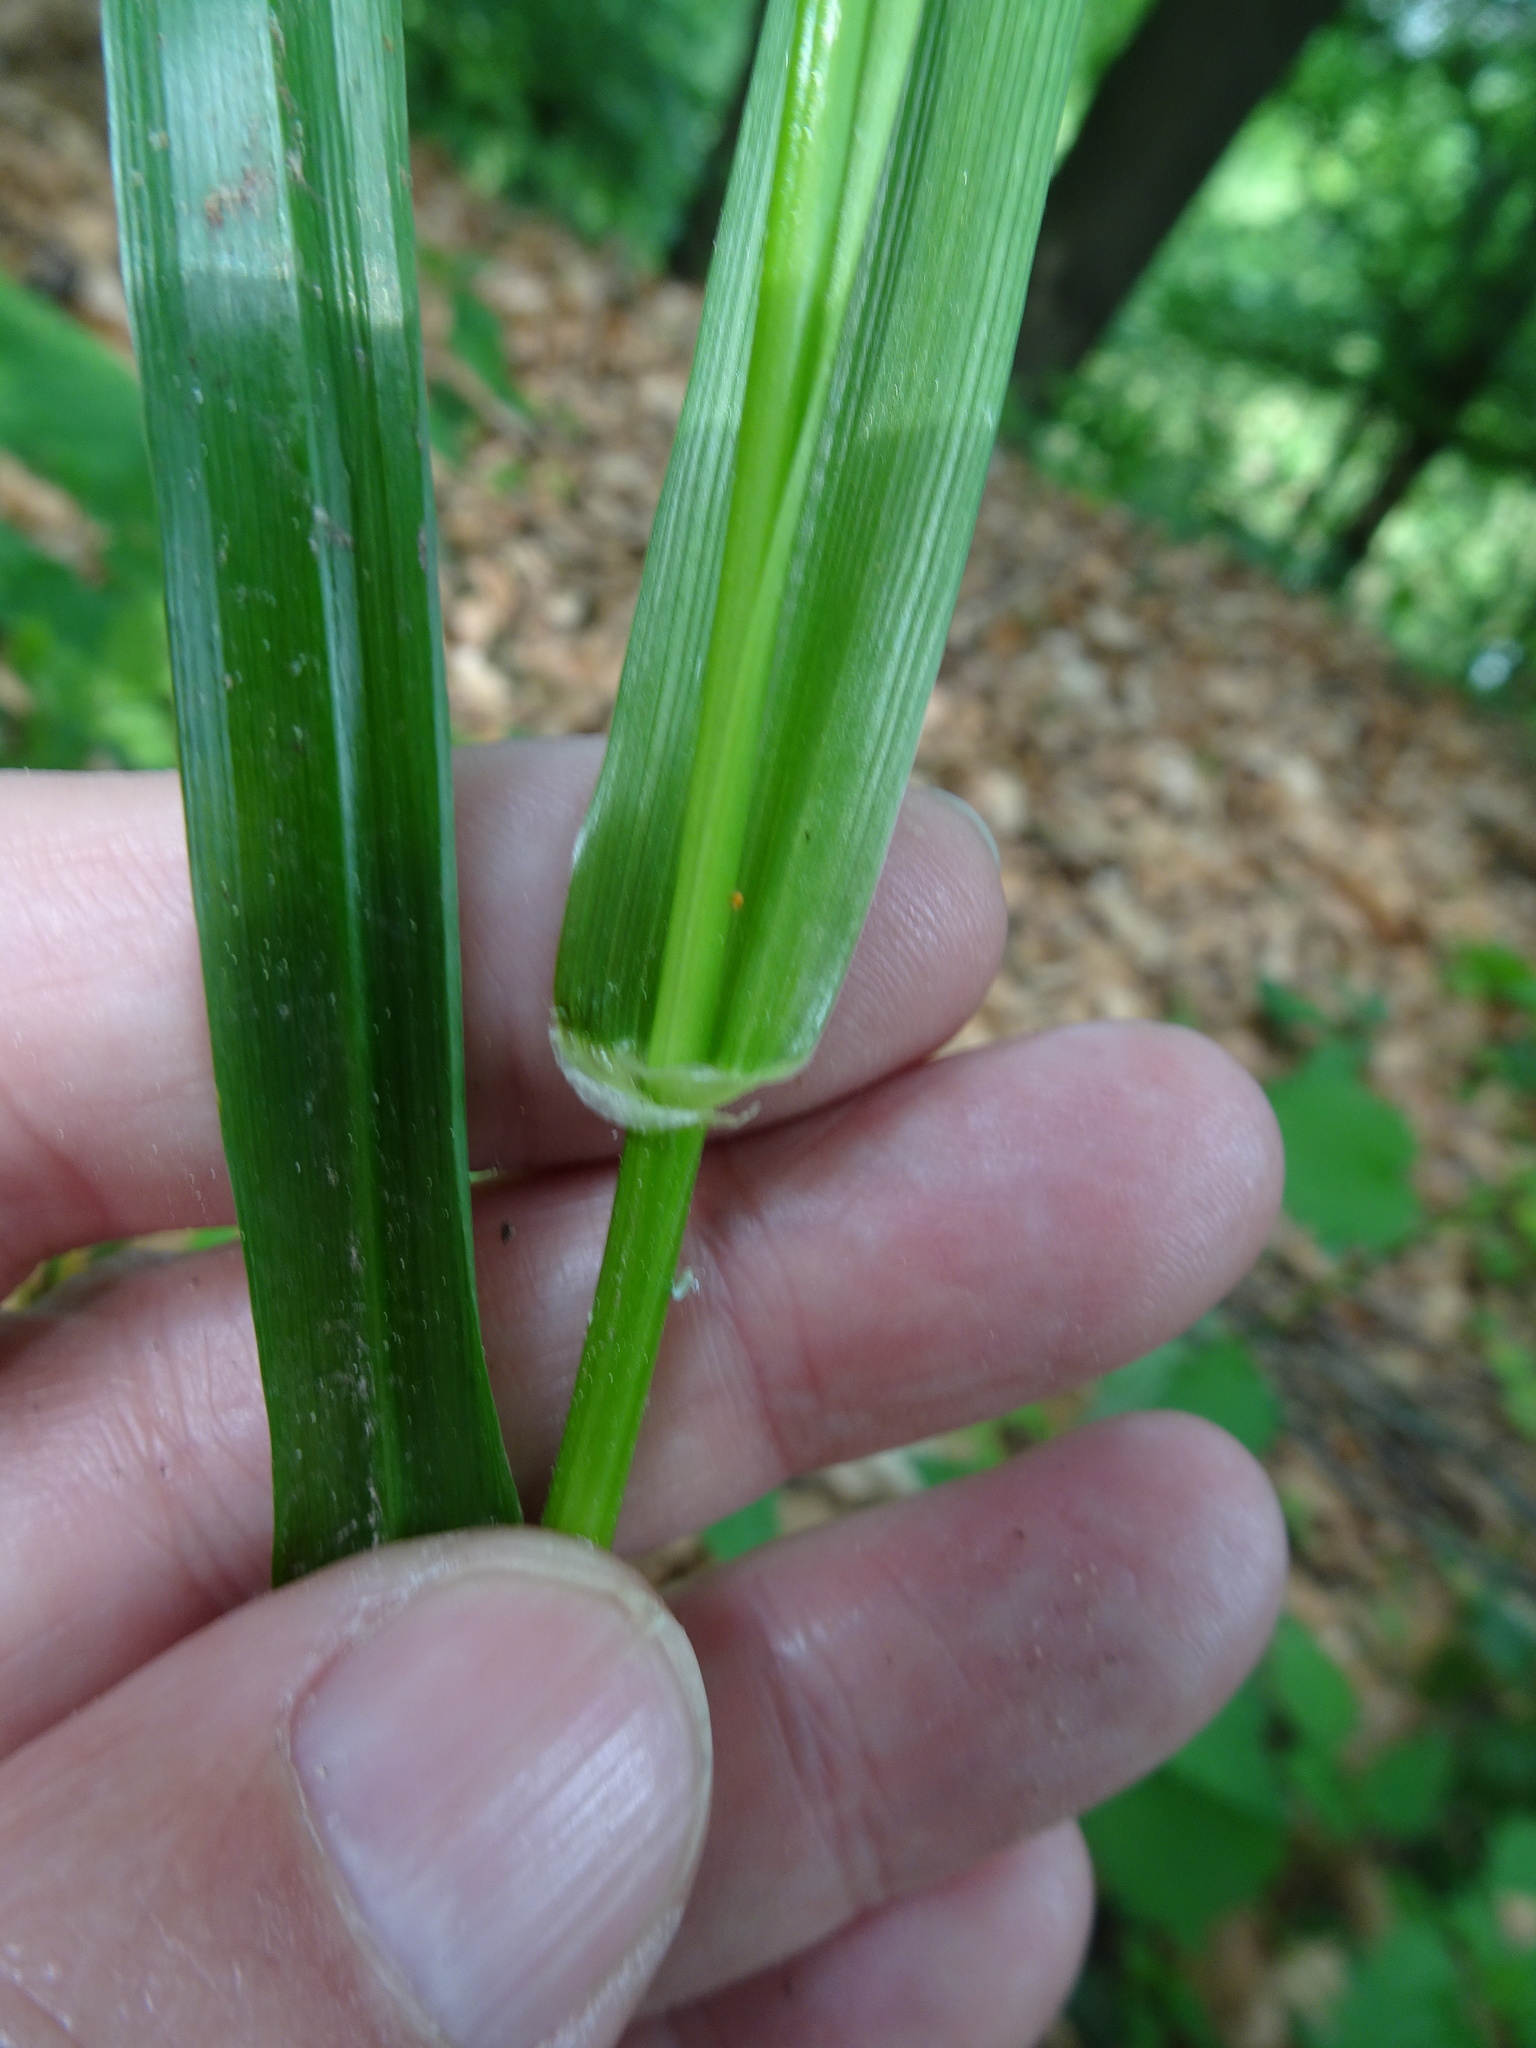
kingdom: Plantae
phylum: Tracheophyta
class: Liliopsida
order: Poales
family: Poaceae
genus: Lolium
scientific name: Lolium giganteum
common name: Giant fescue
